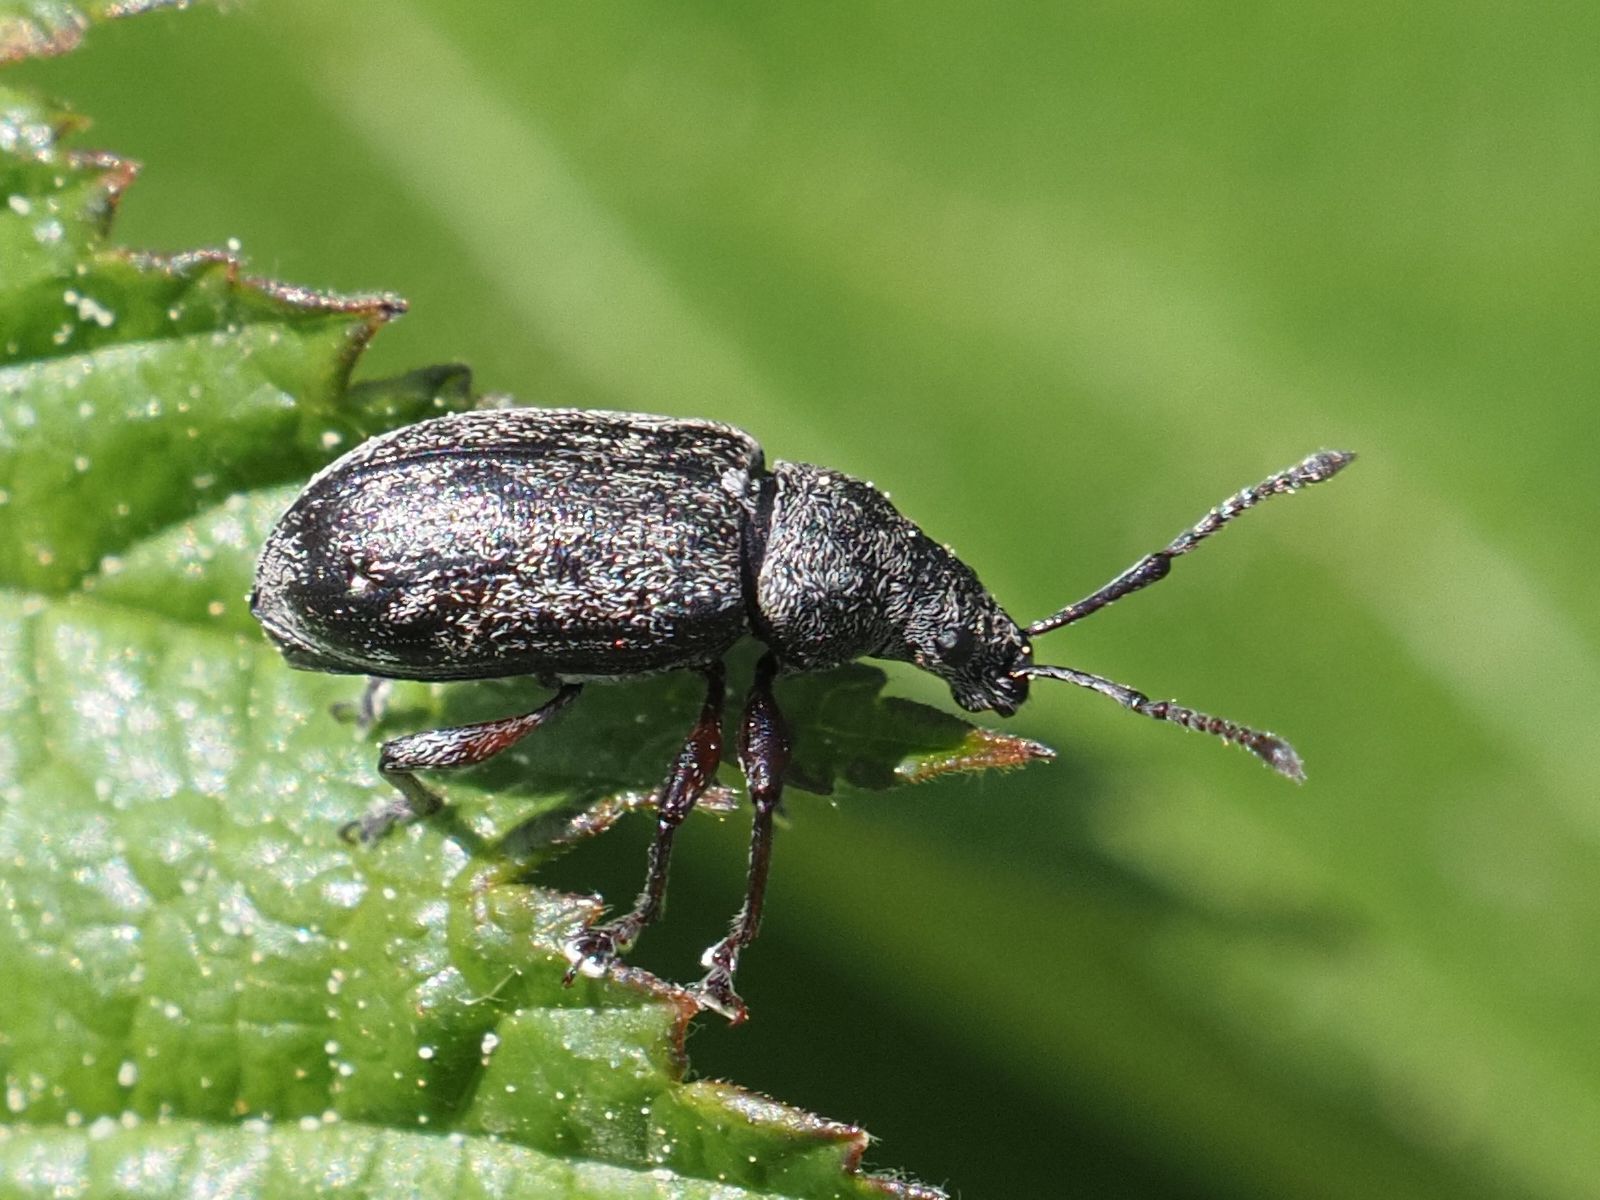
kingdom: Animalia
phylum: Arthropoda
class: Insecta
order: Coleoptera
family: Curculionidae
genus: Phyllobius
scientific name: Phyllobius pyri
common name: Common leaf weevil
